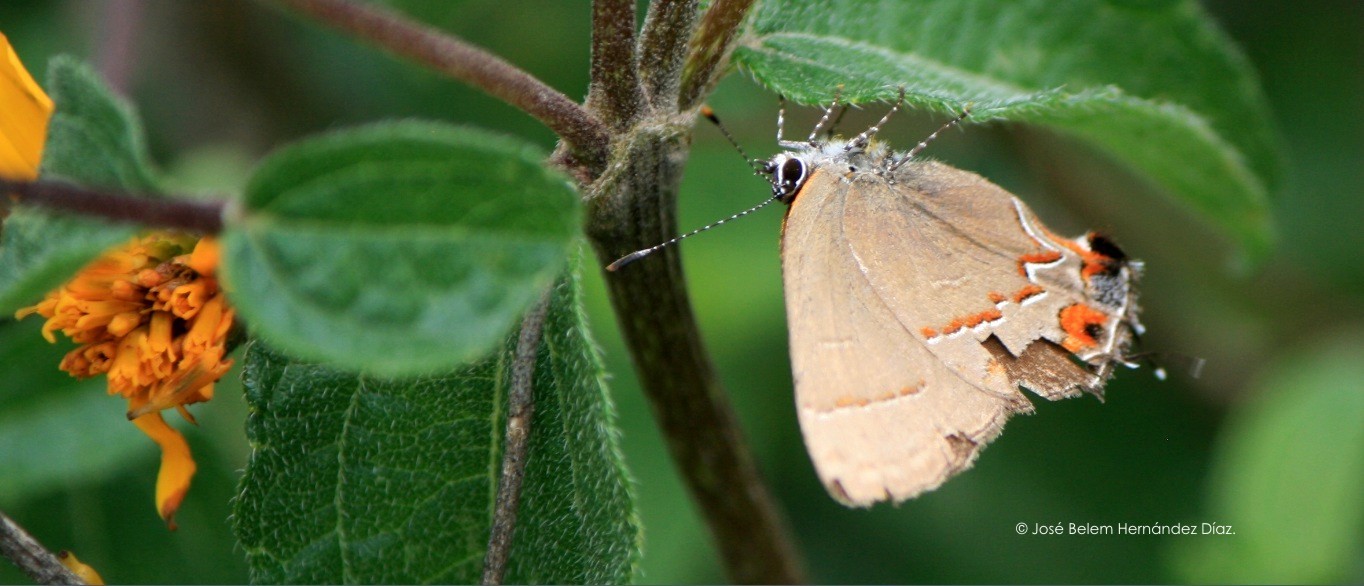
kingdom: Animalia
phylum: Arthropoda
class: Insecta
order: Lepidoptera
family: Lycaenidae
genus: Electrostrymon
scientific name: Electrostrymon
